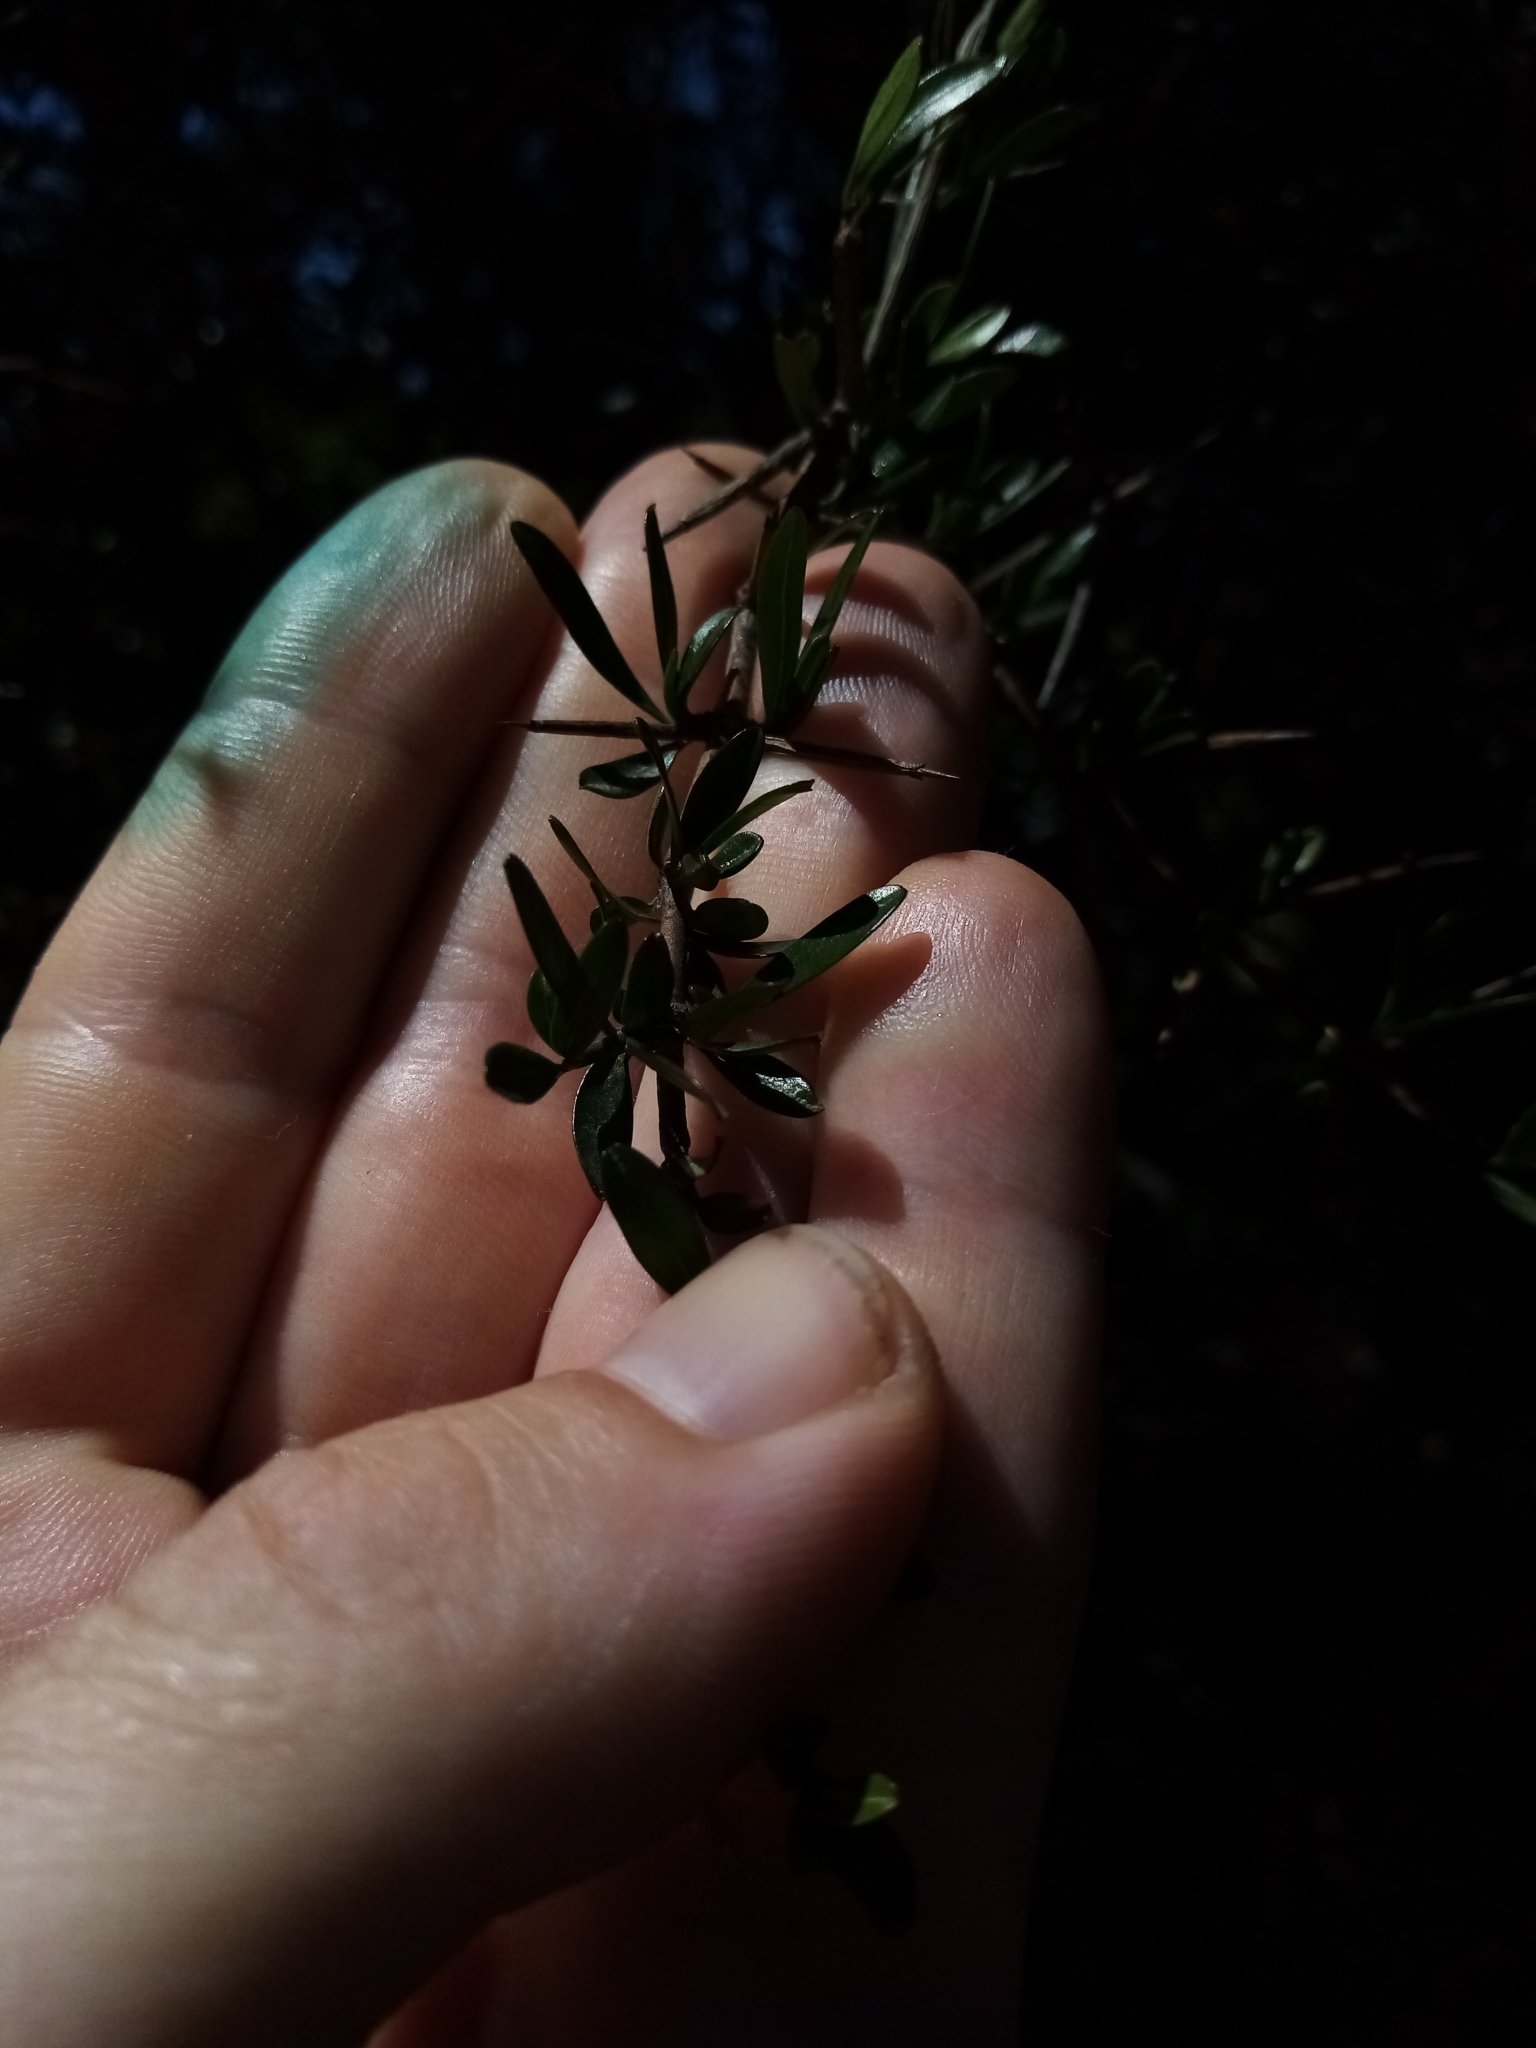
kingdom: Plantae
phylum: Tracheophyta
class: Magnoliopsida
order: Rosales
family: Rhamnaceae
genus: Discaria
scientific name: Discaria toumatou
